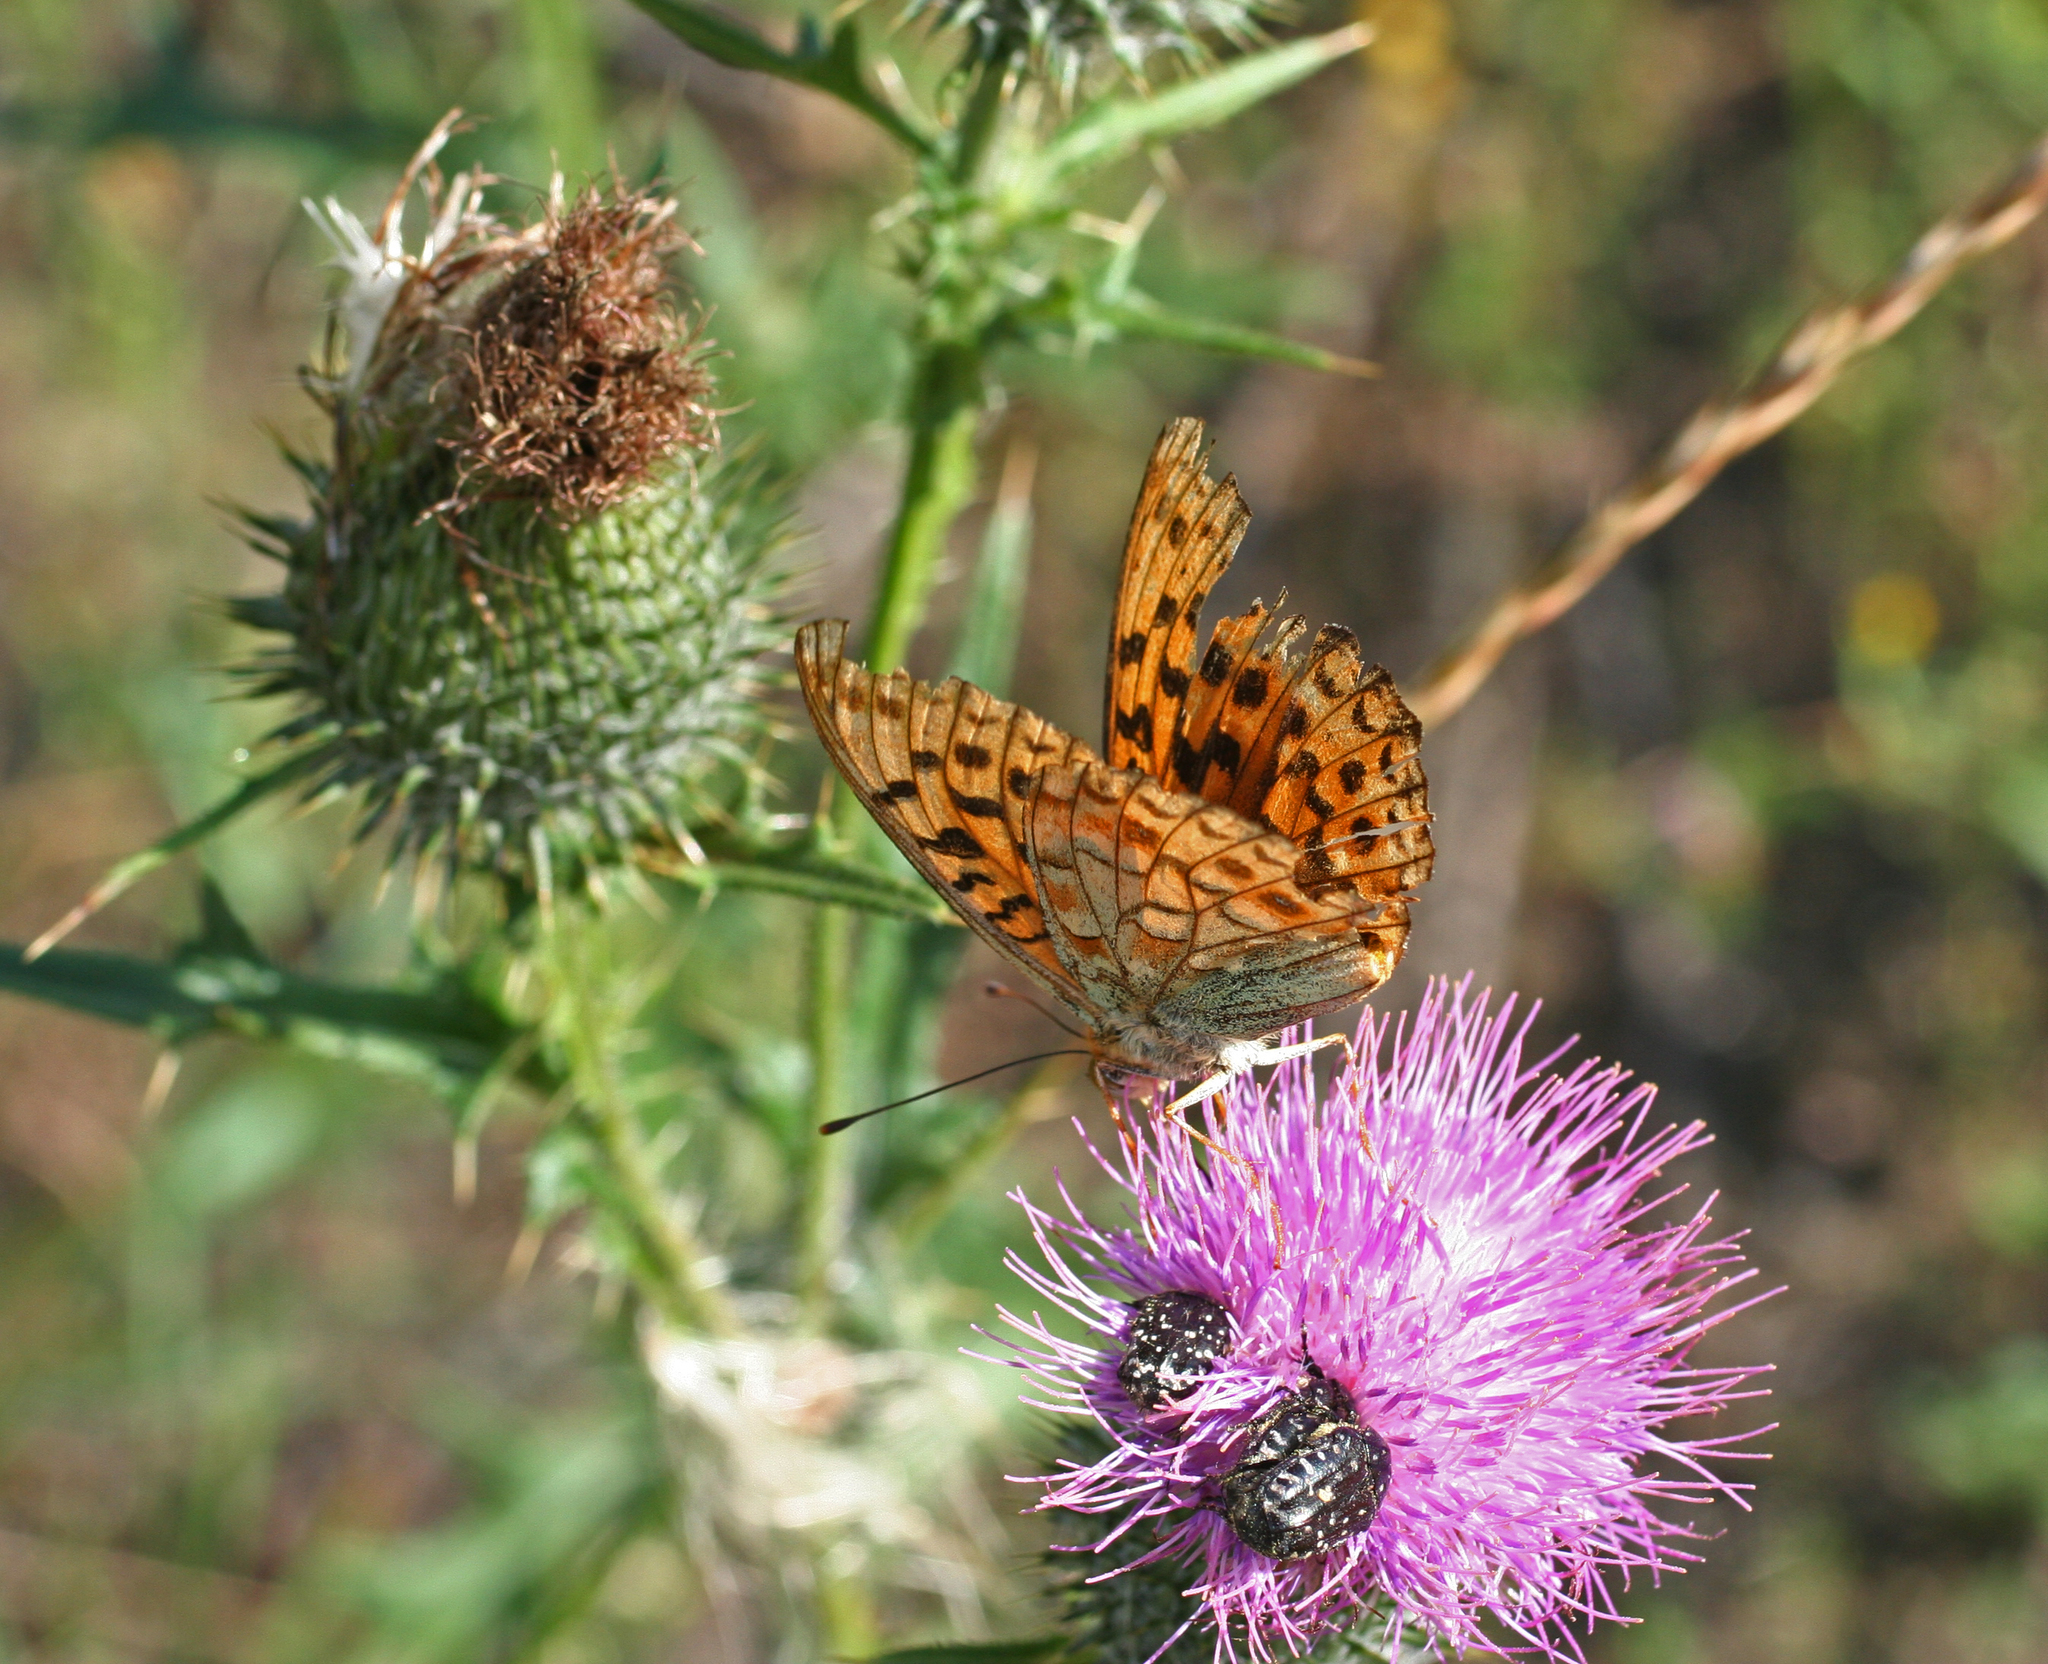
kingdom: Animalia
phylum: Arthropoda
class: Insecta
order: Lepidoptera
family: Nymphalidae
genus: Fabriciana
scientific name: Fabriciana adippe
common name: High brown fritillary
